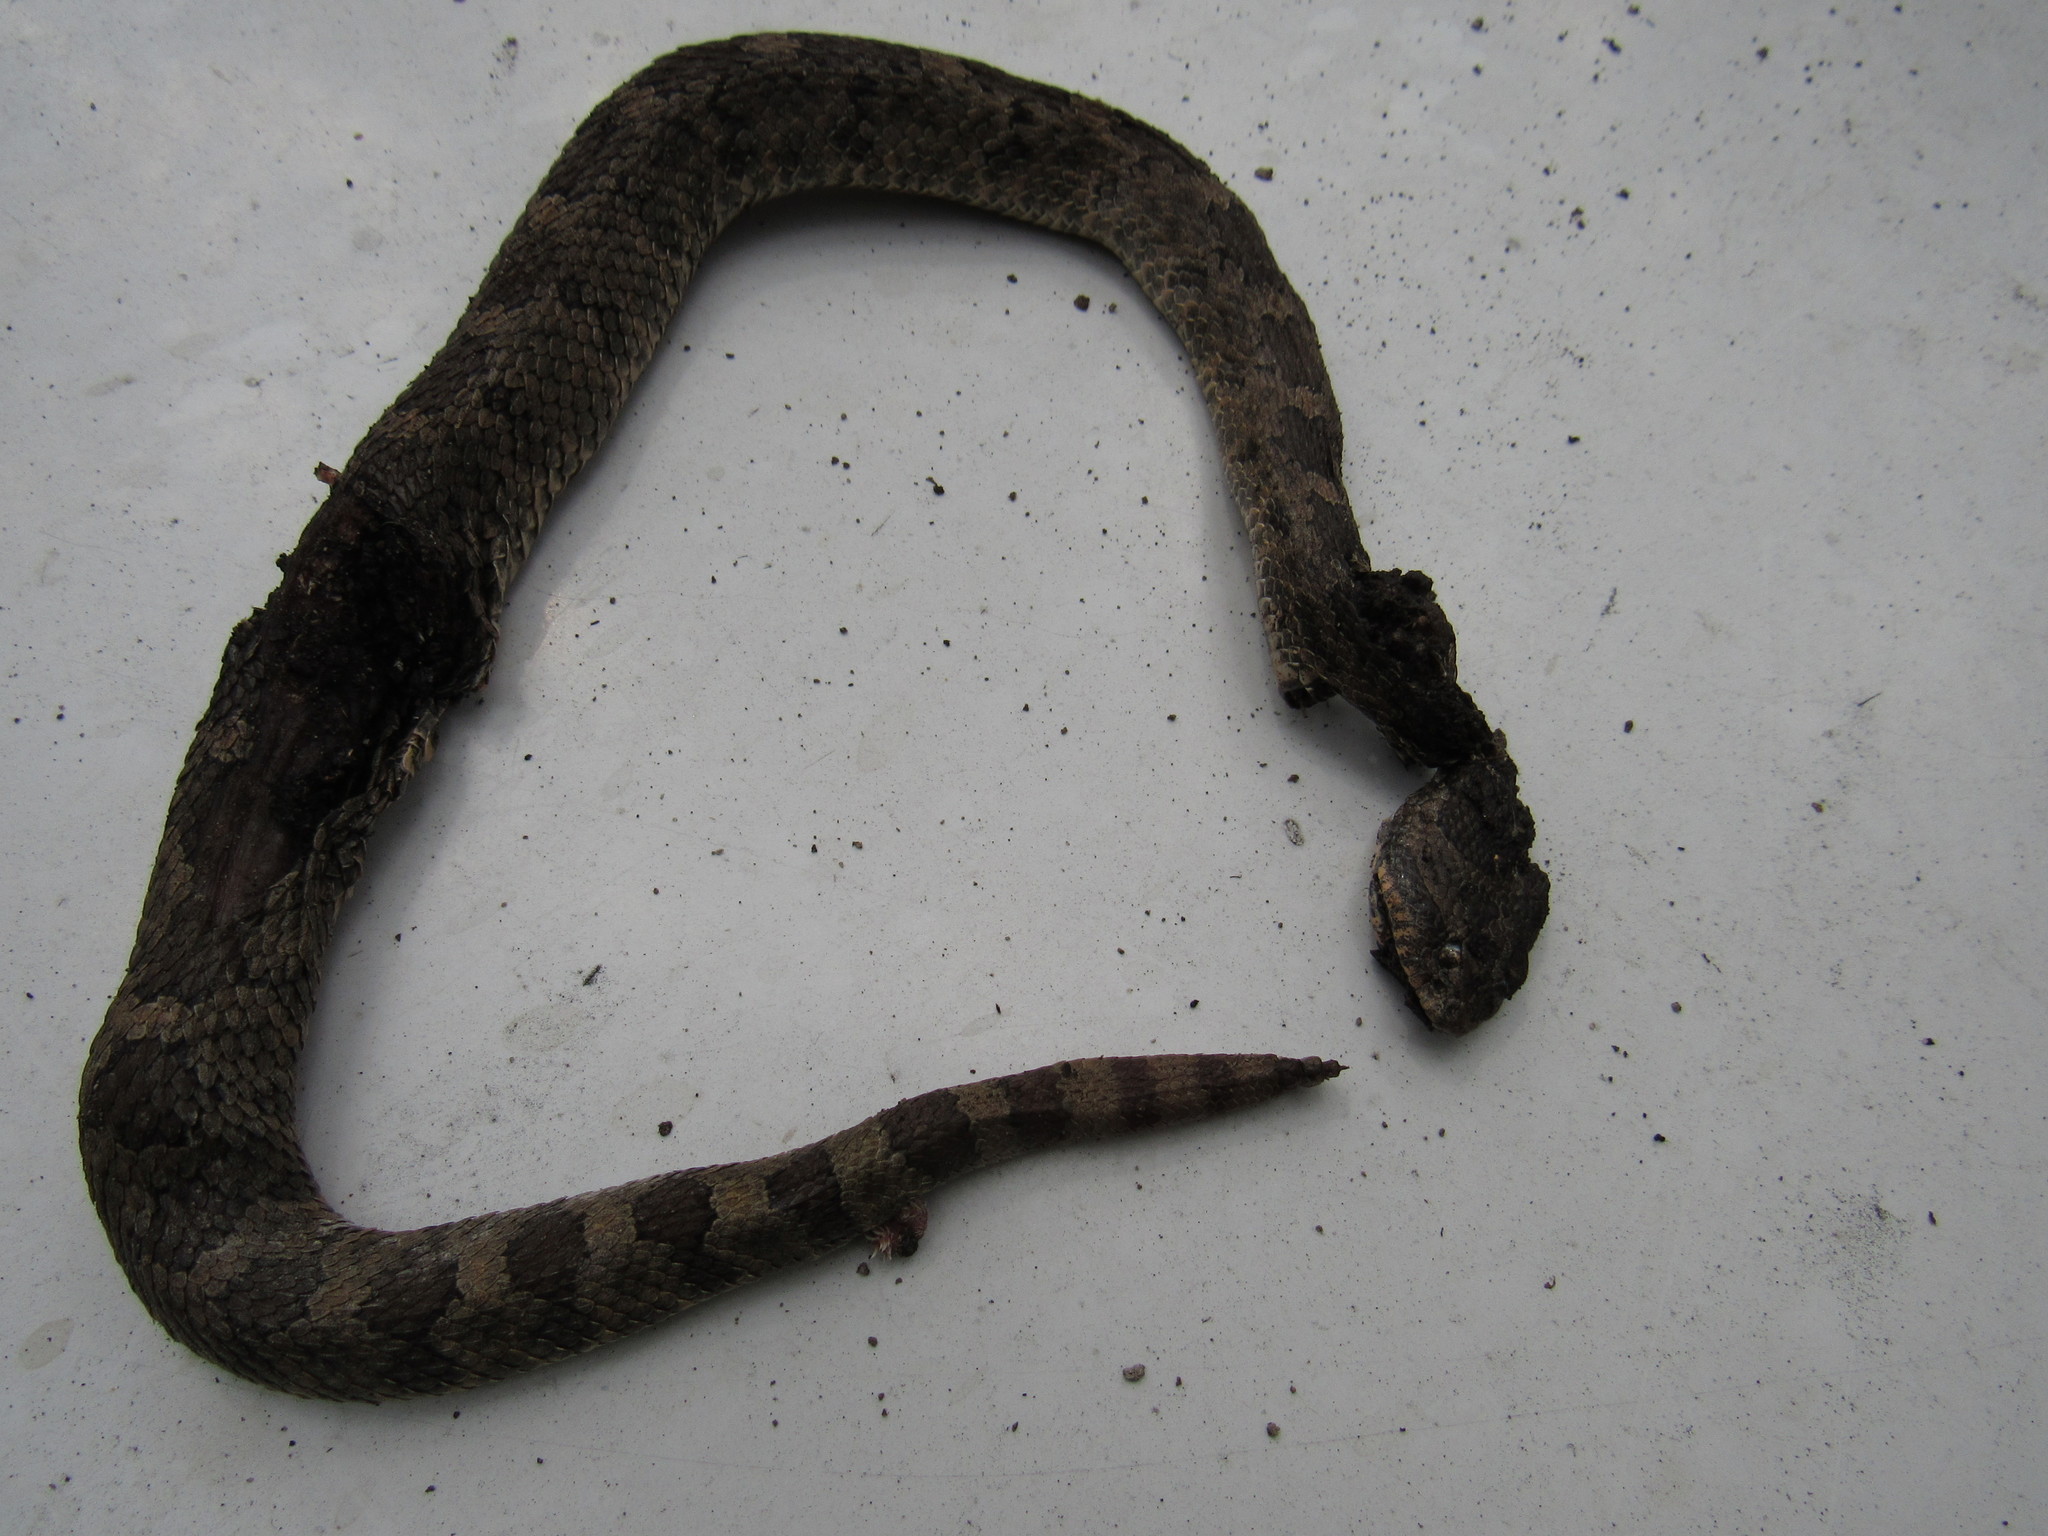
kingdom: Animalia
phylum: Chordata
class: Squamata
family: Viperidae
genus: Crotalus
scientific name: Crotalus aquilus
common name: Queretaran dusky rattlesnake
